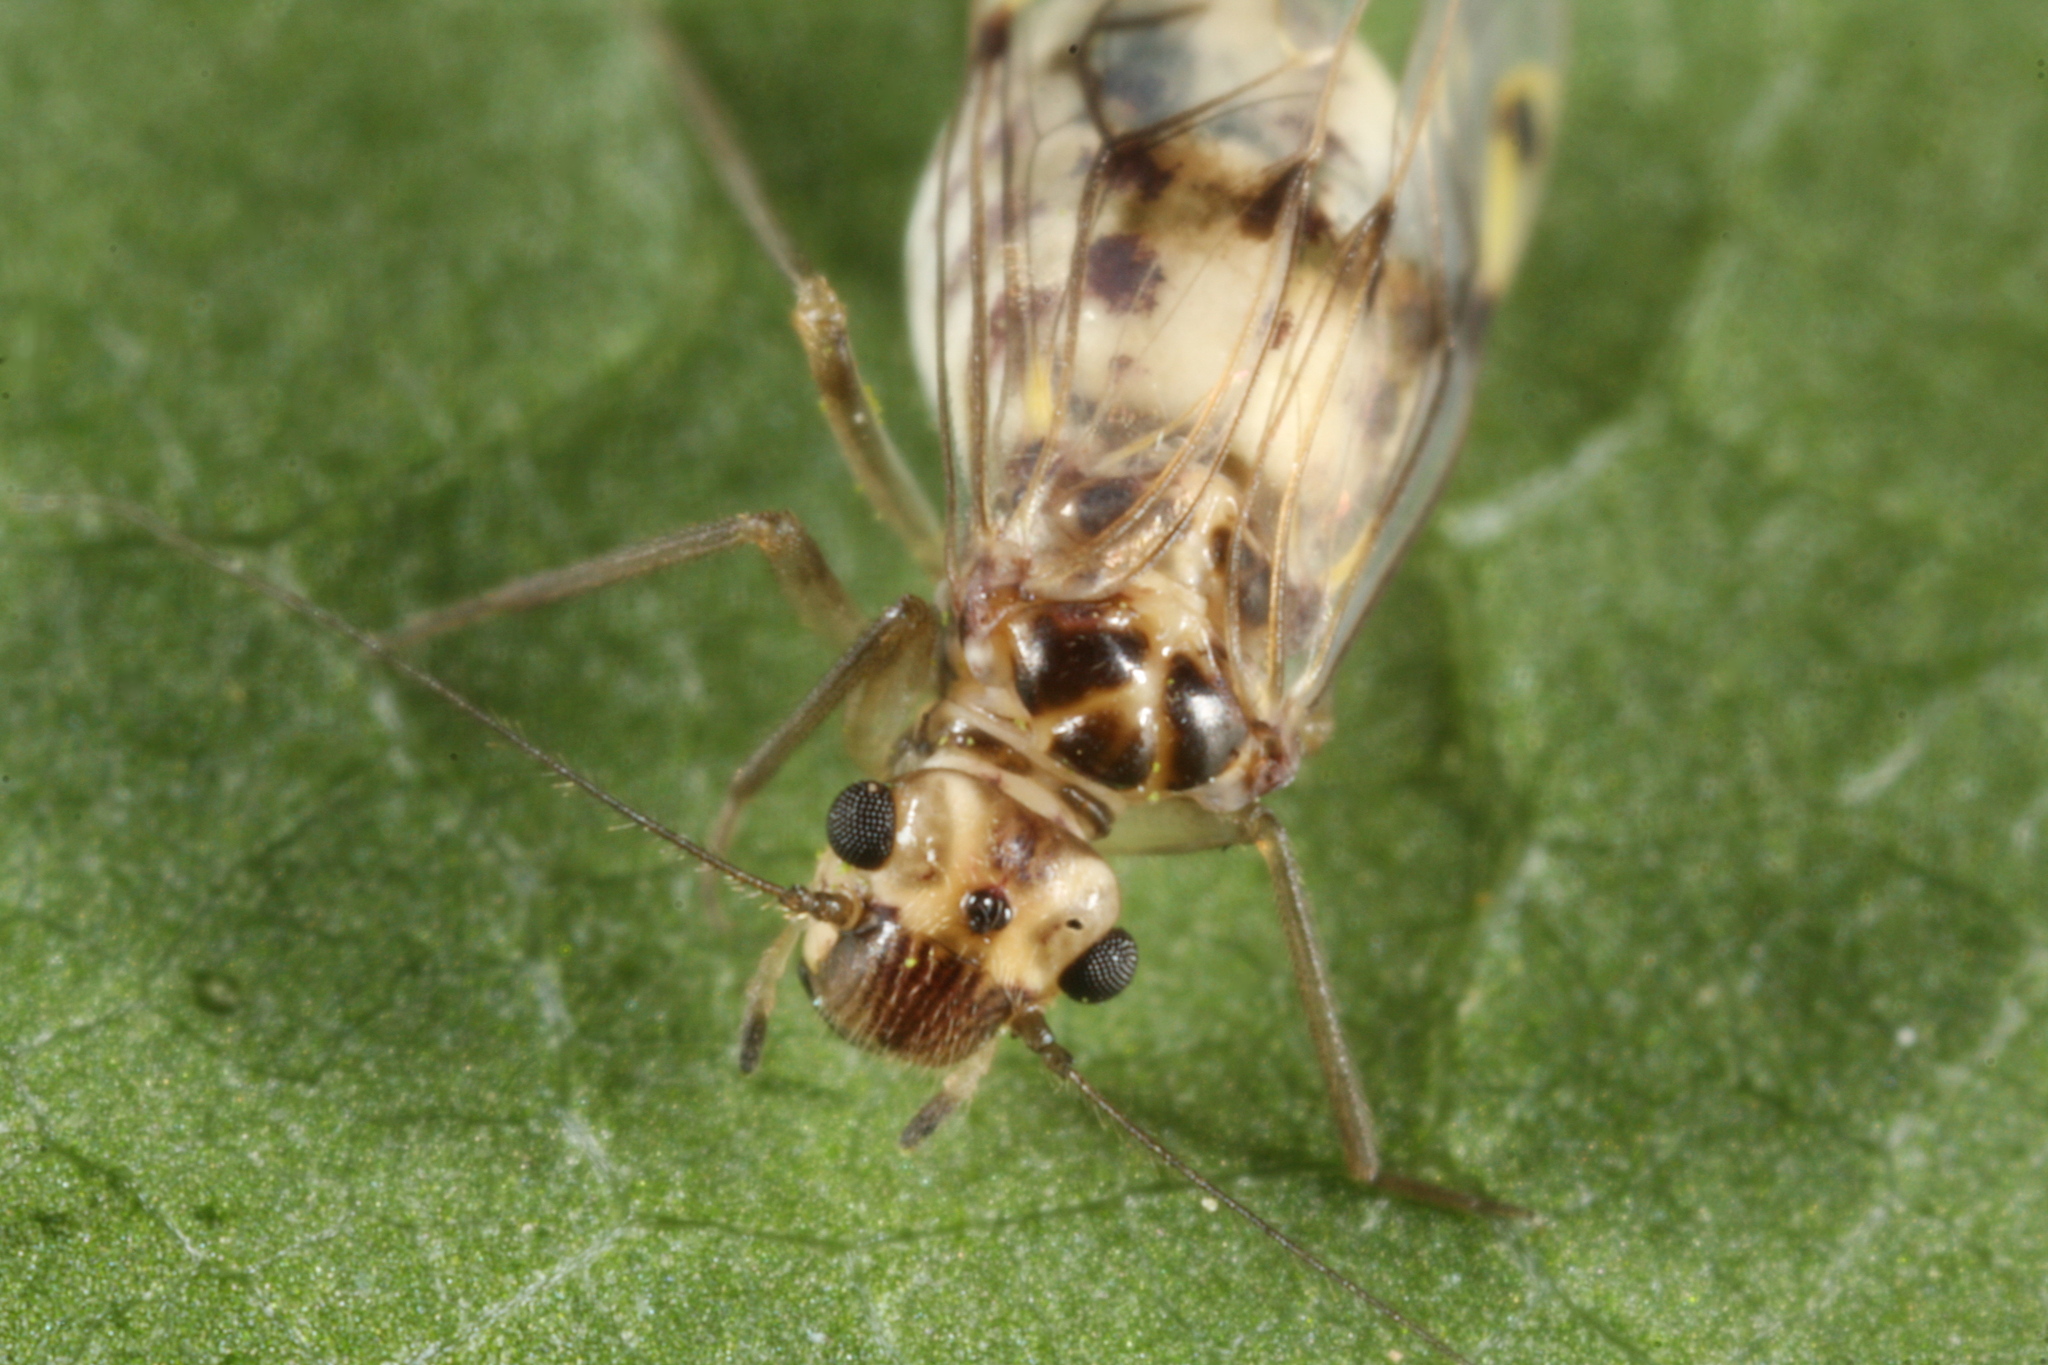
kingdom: Animalia
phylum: Arthropoda
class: Insecta
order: Psocodea
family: Psocidae
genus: Psocus
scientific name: Psocus bipunctatus
